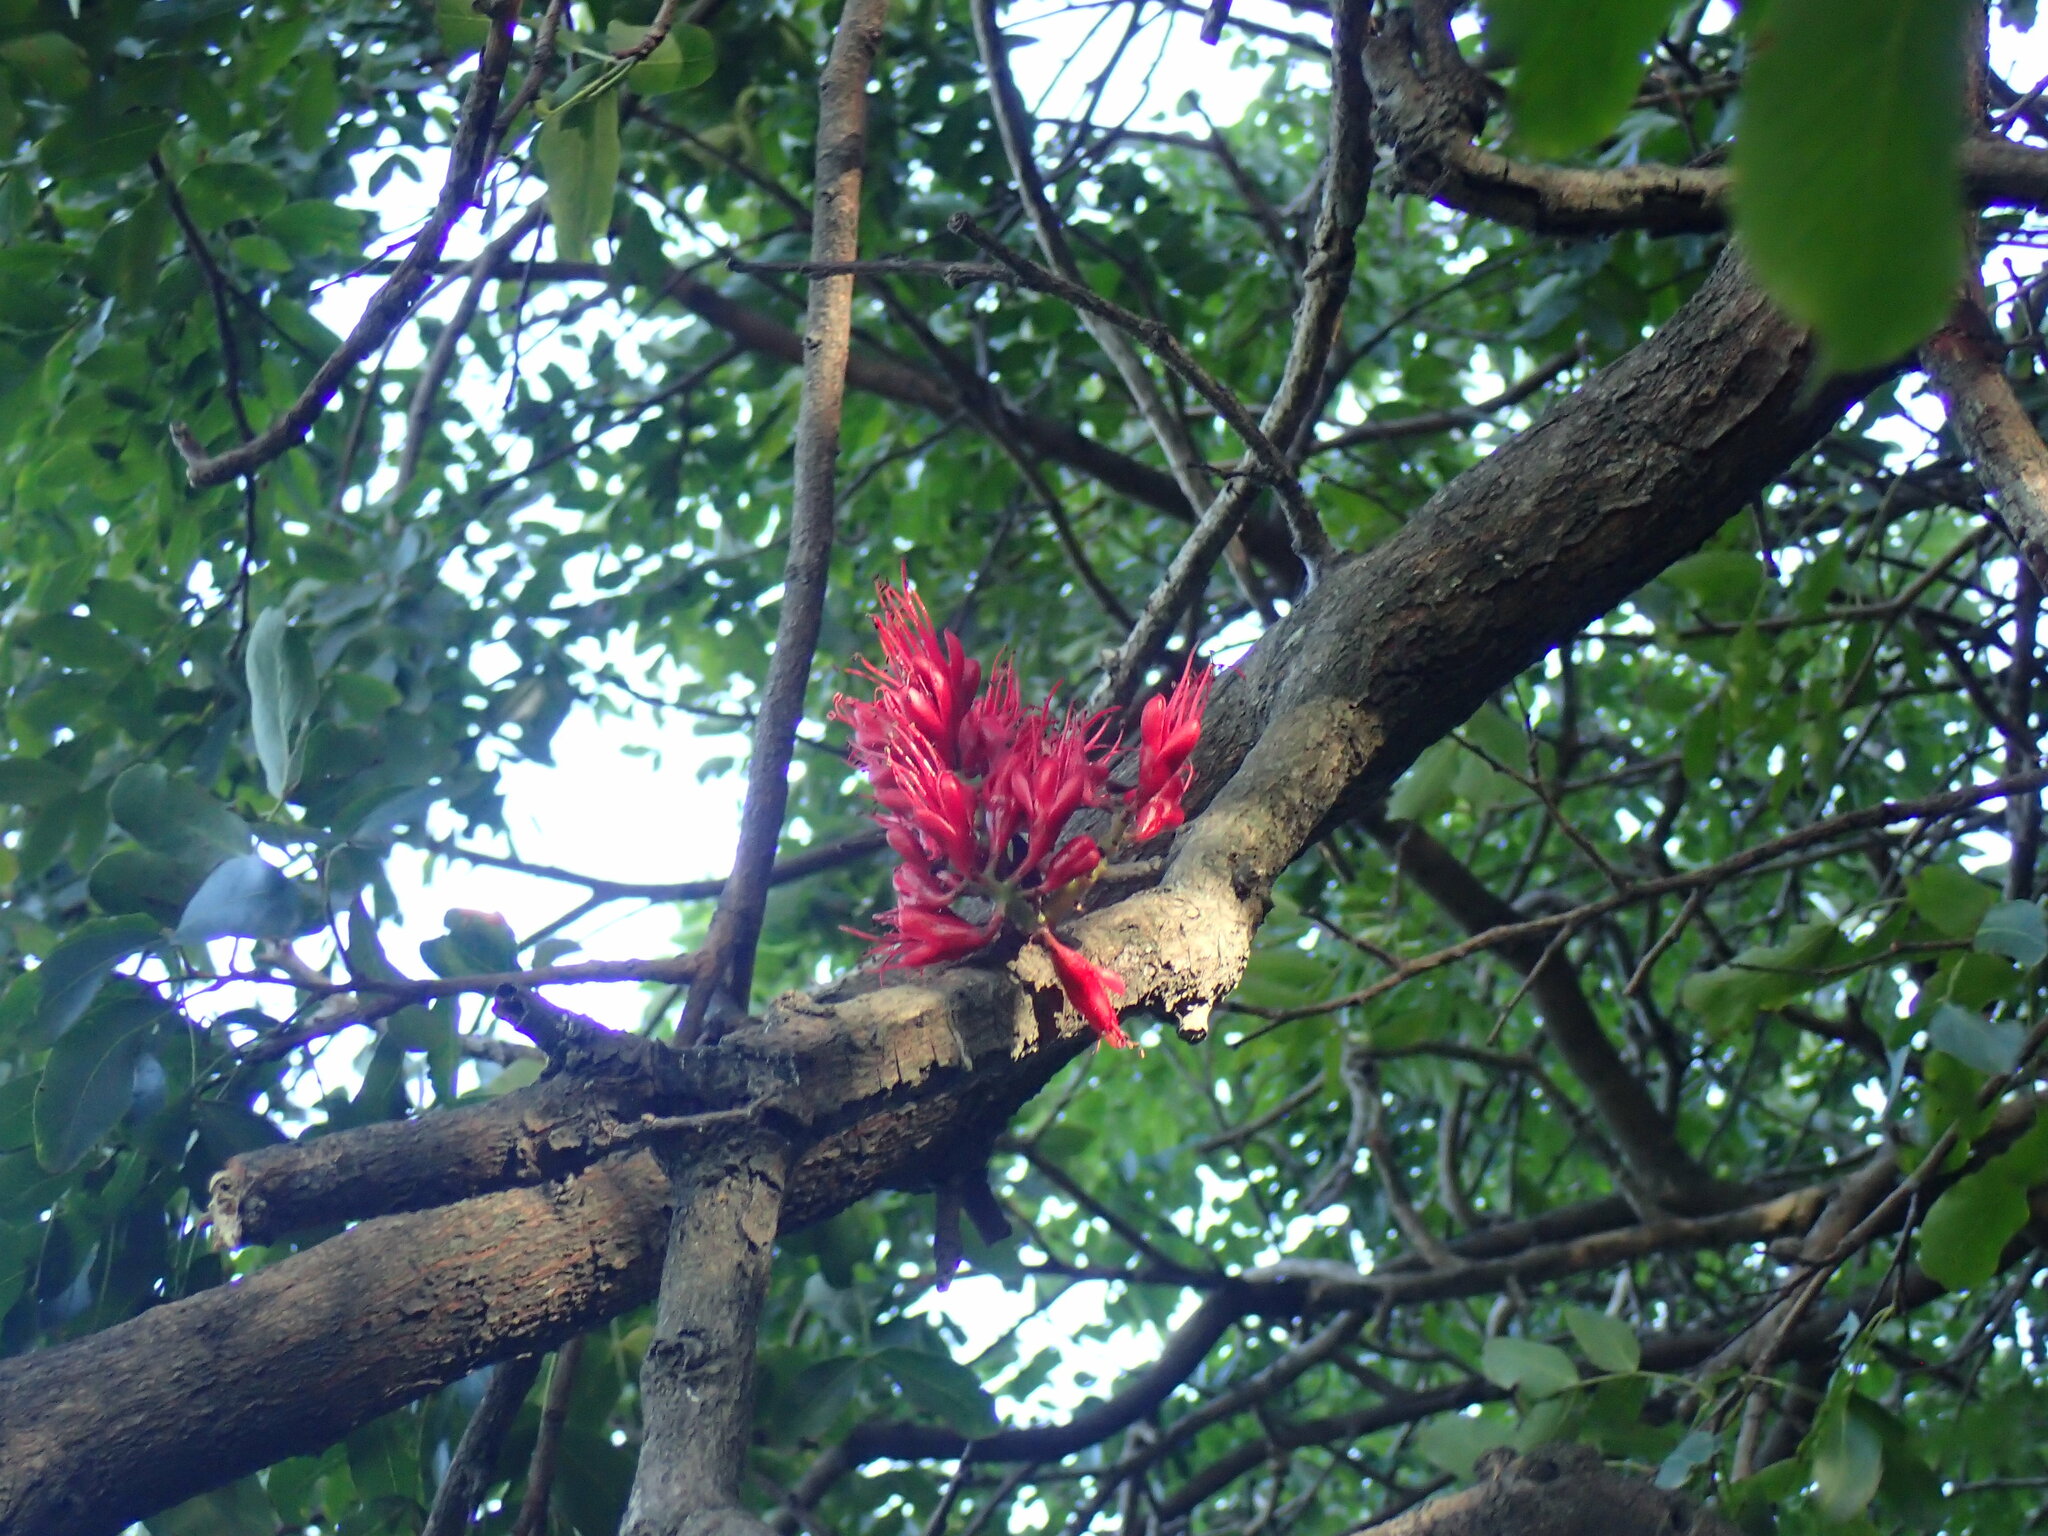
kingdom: Plantae
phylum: Tracheophyta
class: Magnoliopsida
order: Fabales
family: Fabaceae
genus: Schotia
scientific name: Schotia brachypetala
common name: Weeping boer-bean
